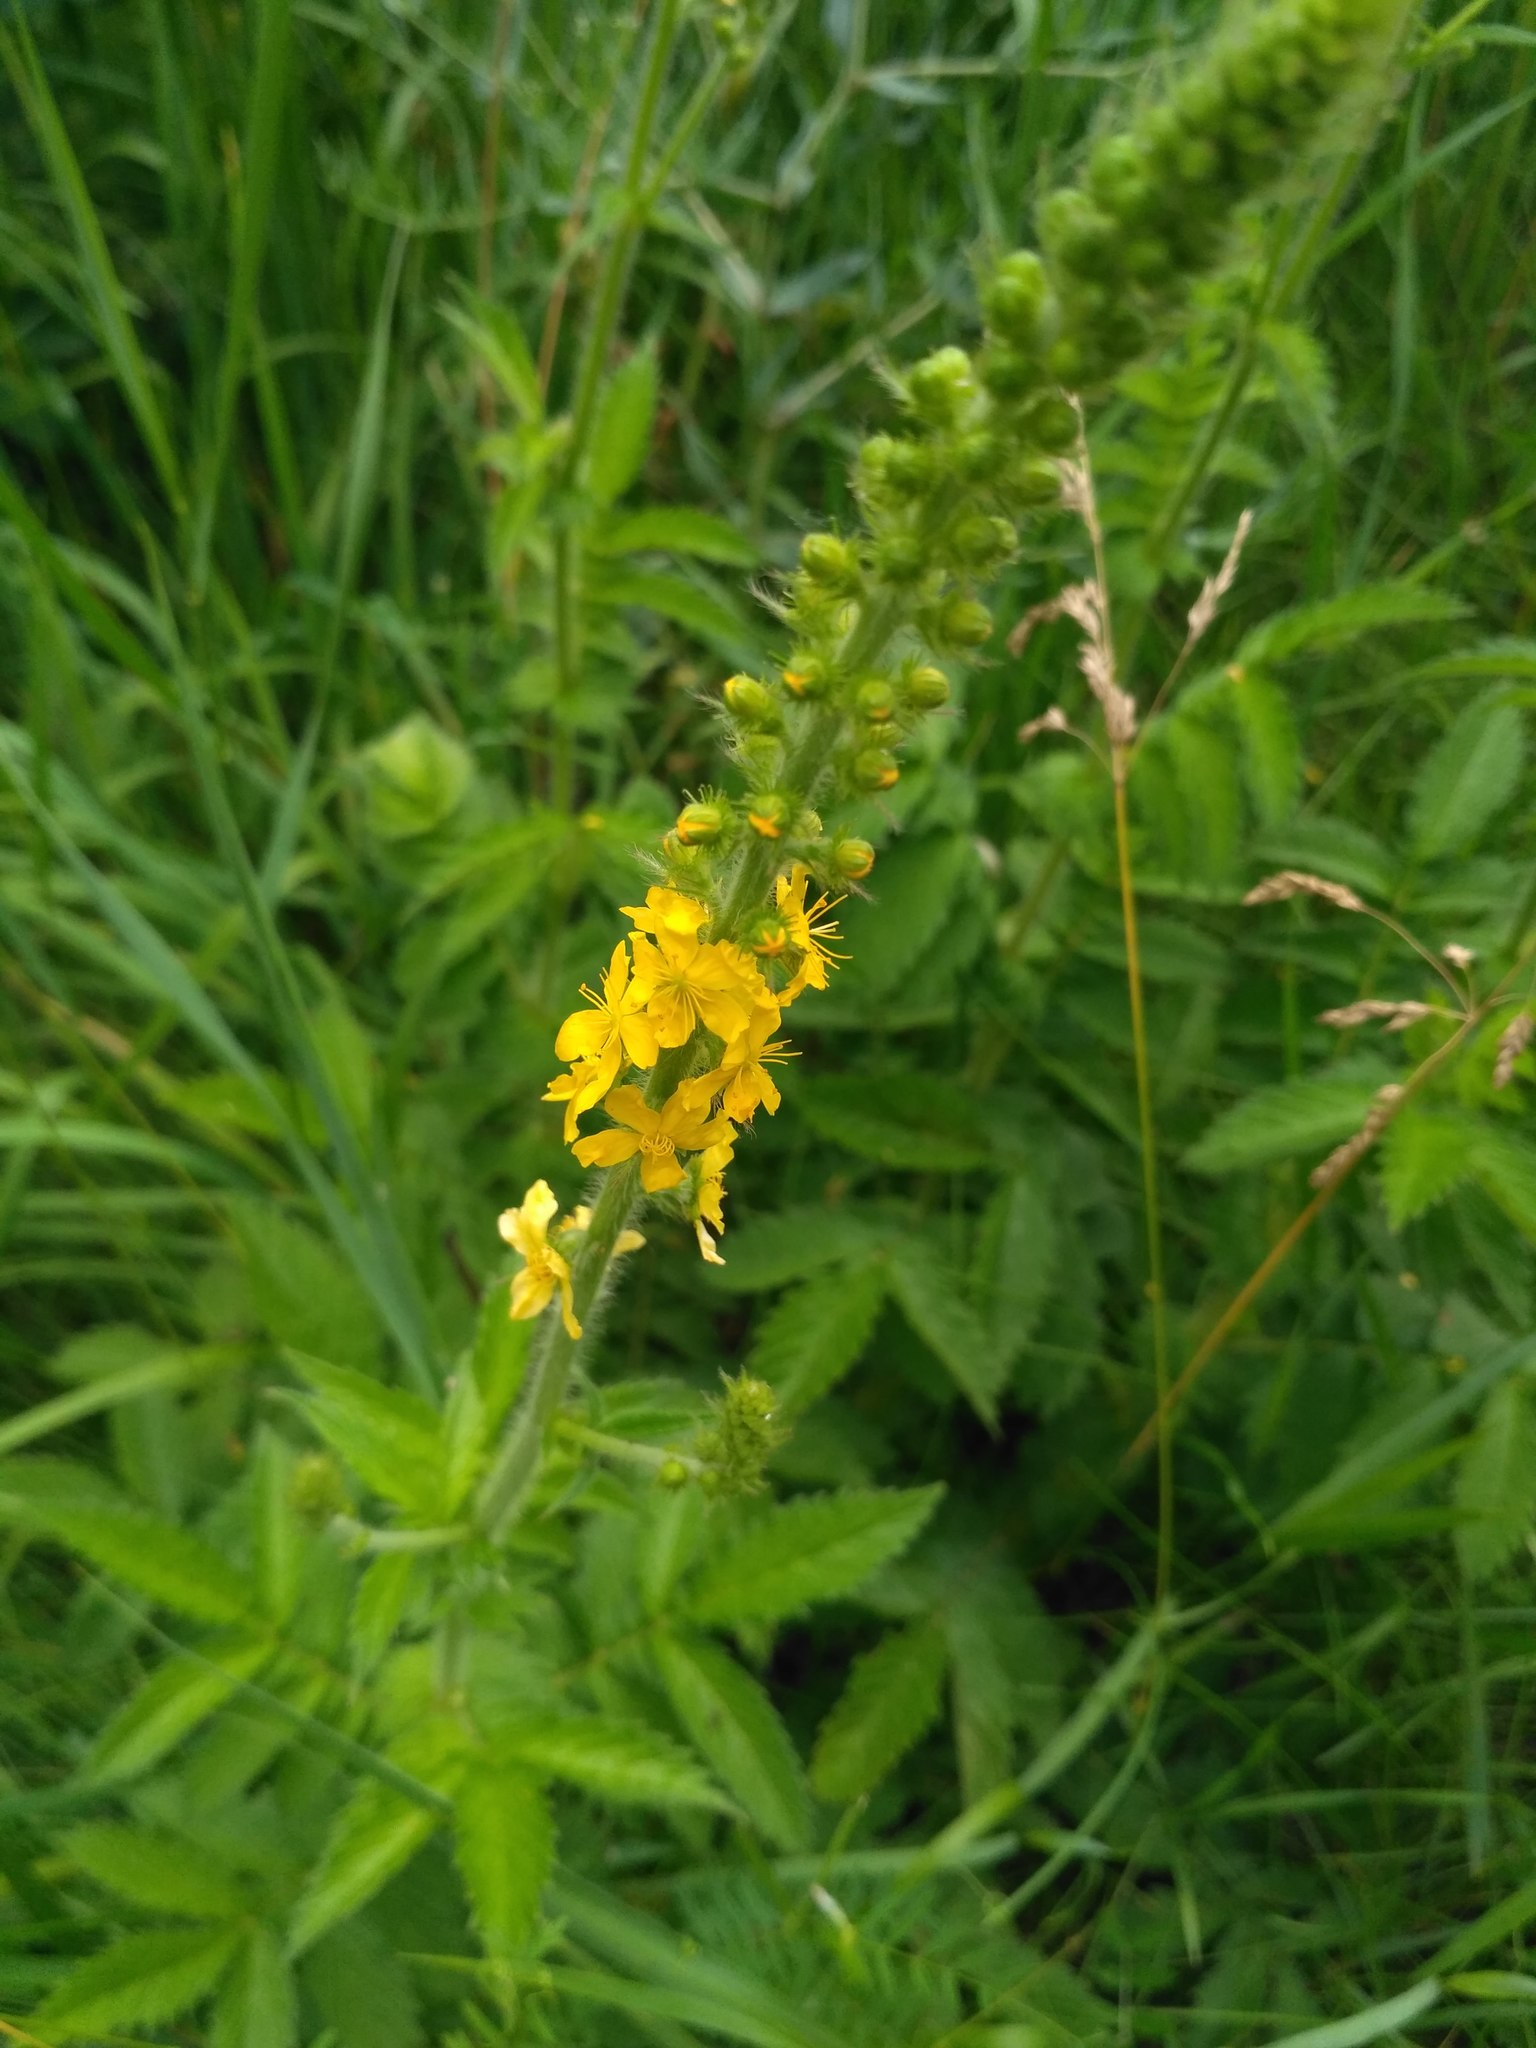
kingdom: Plantae
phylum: Tracheophyta
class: Magnoliopsida
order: Rosales
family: Rosaceae
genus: Agrimonia
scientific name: Agrimonia eupatoria
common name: Agrimony
